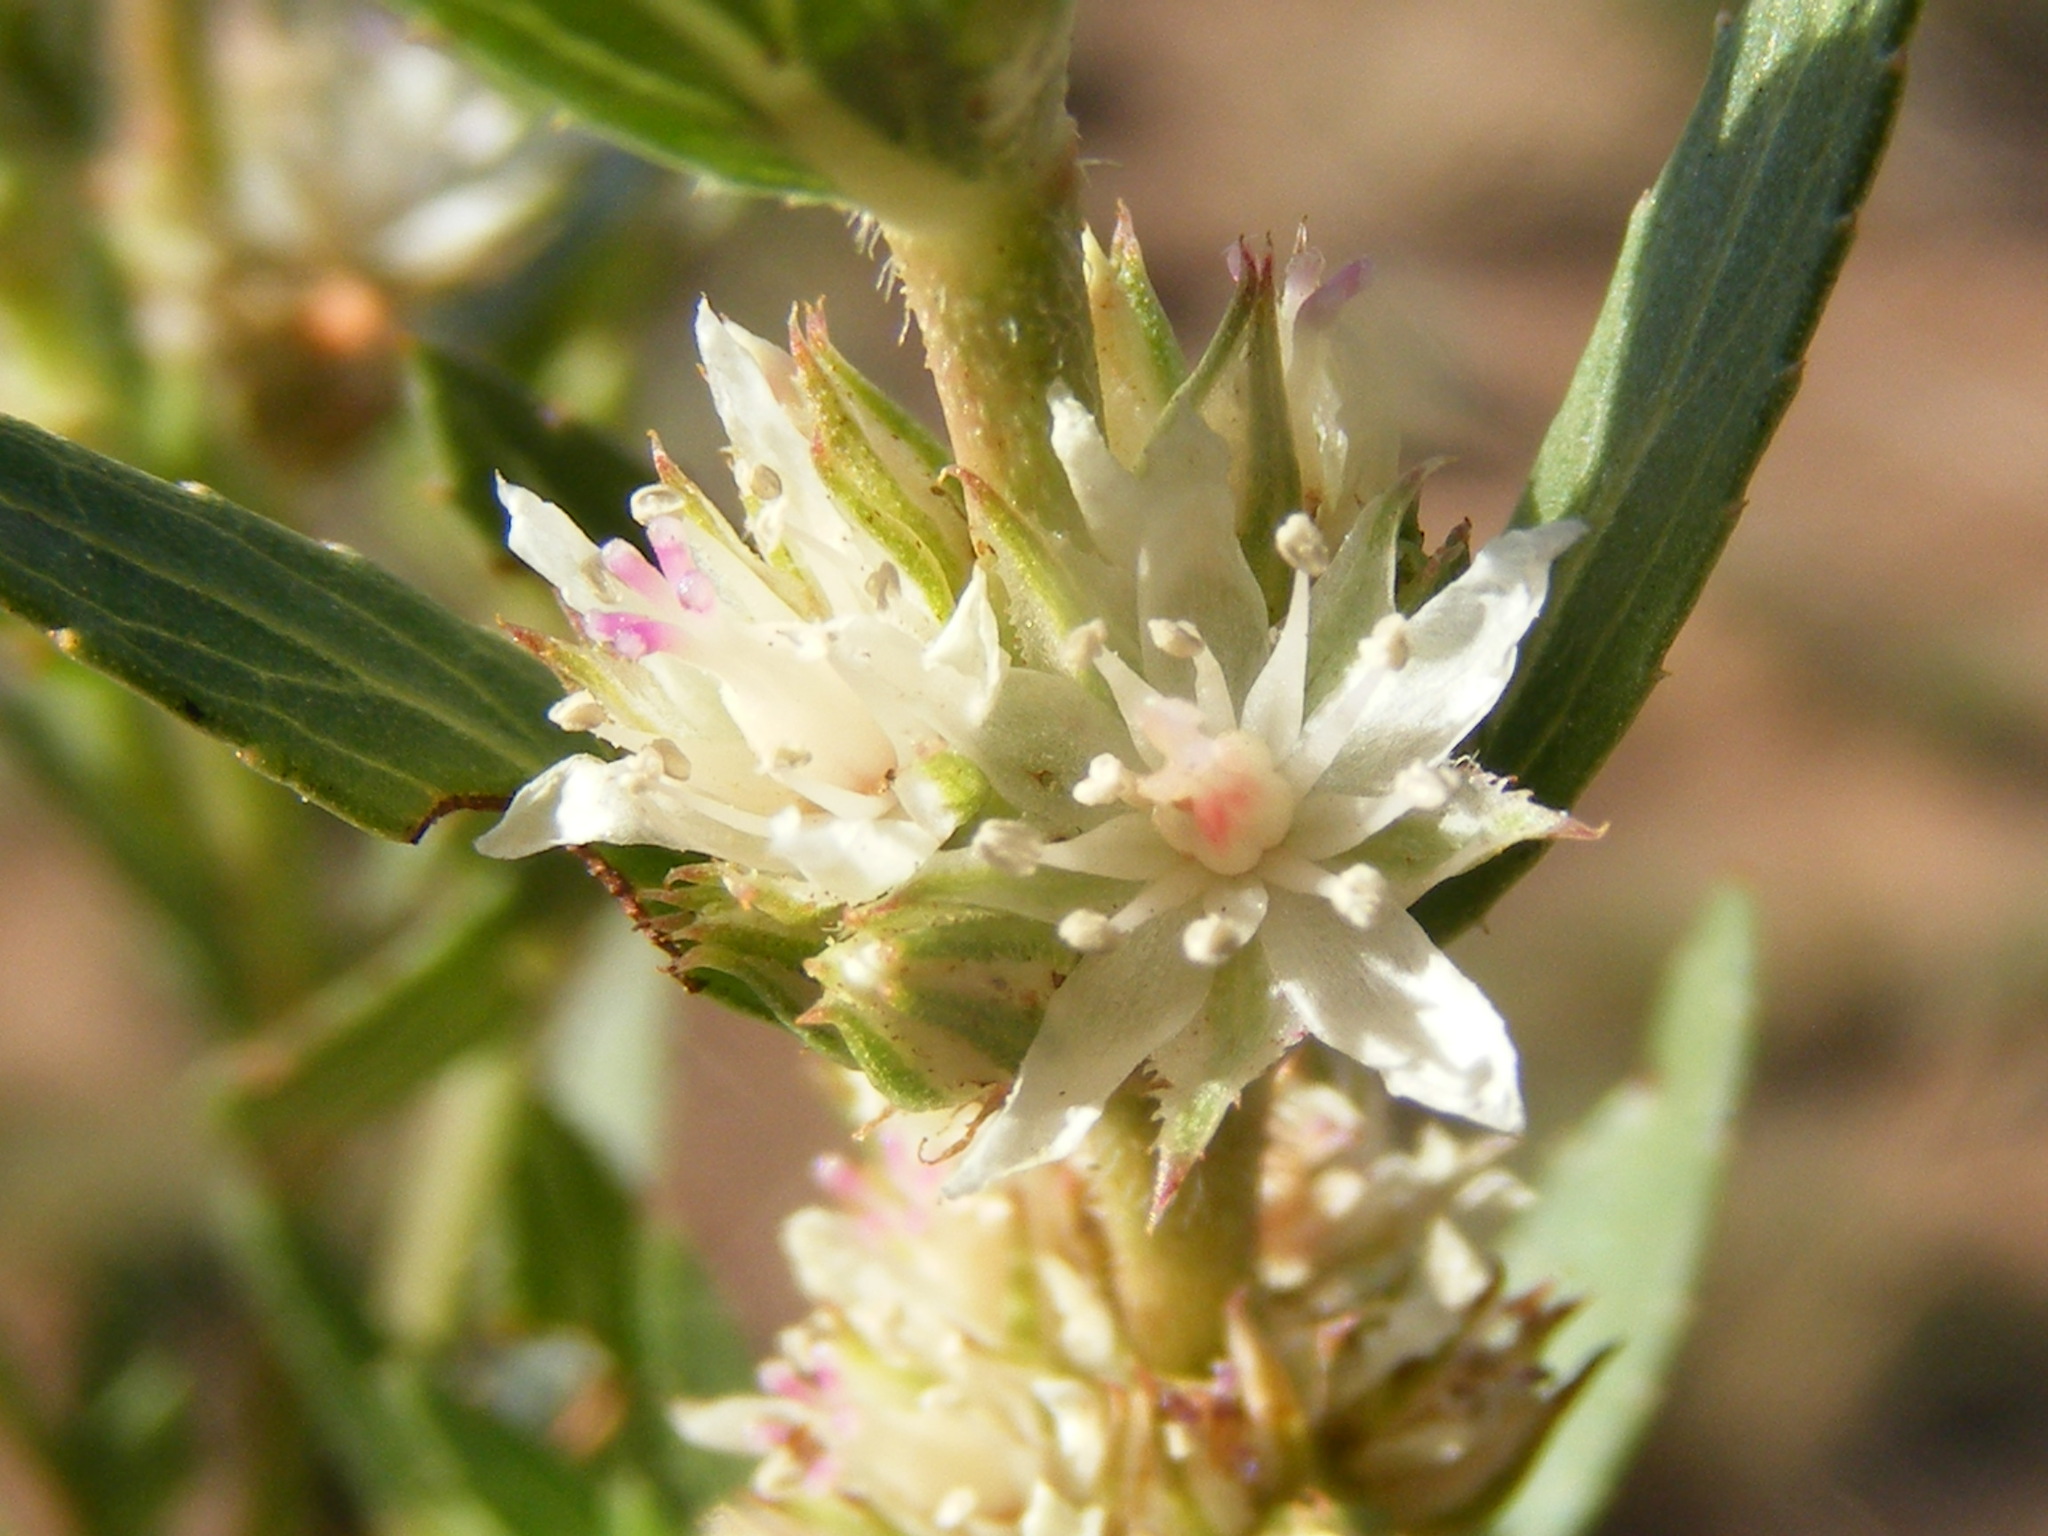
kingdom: Plantae
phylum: Tracheophyta
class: Magnoliopsida
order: Malpighiales
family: Elatinaceae
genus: Bergia
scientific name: Bergia decumbens
